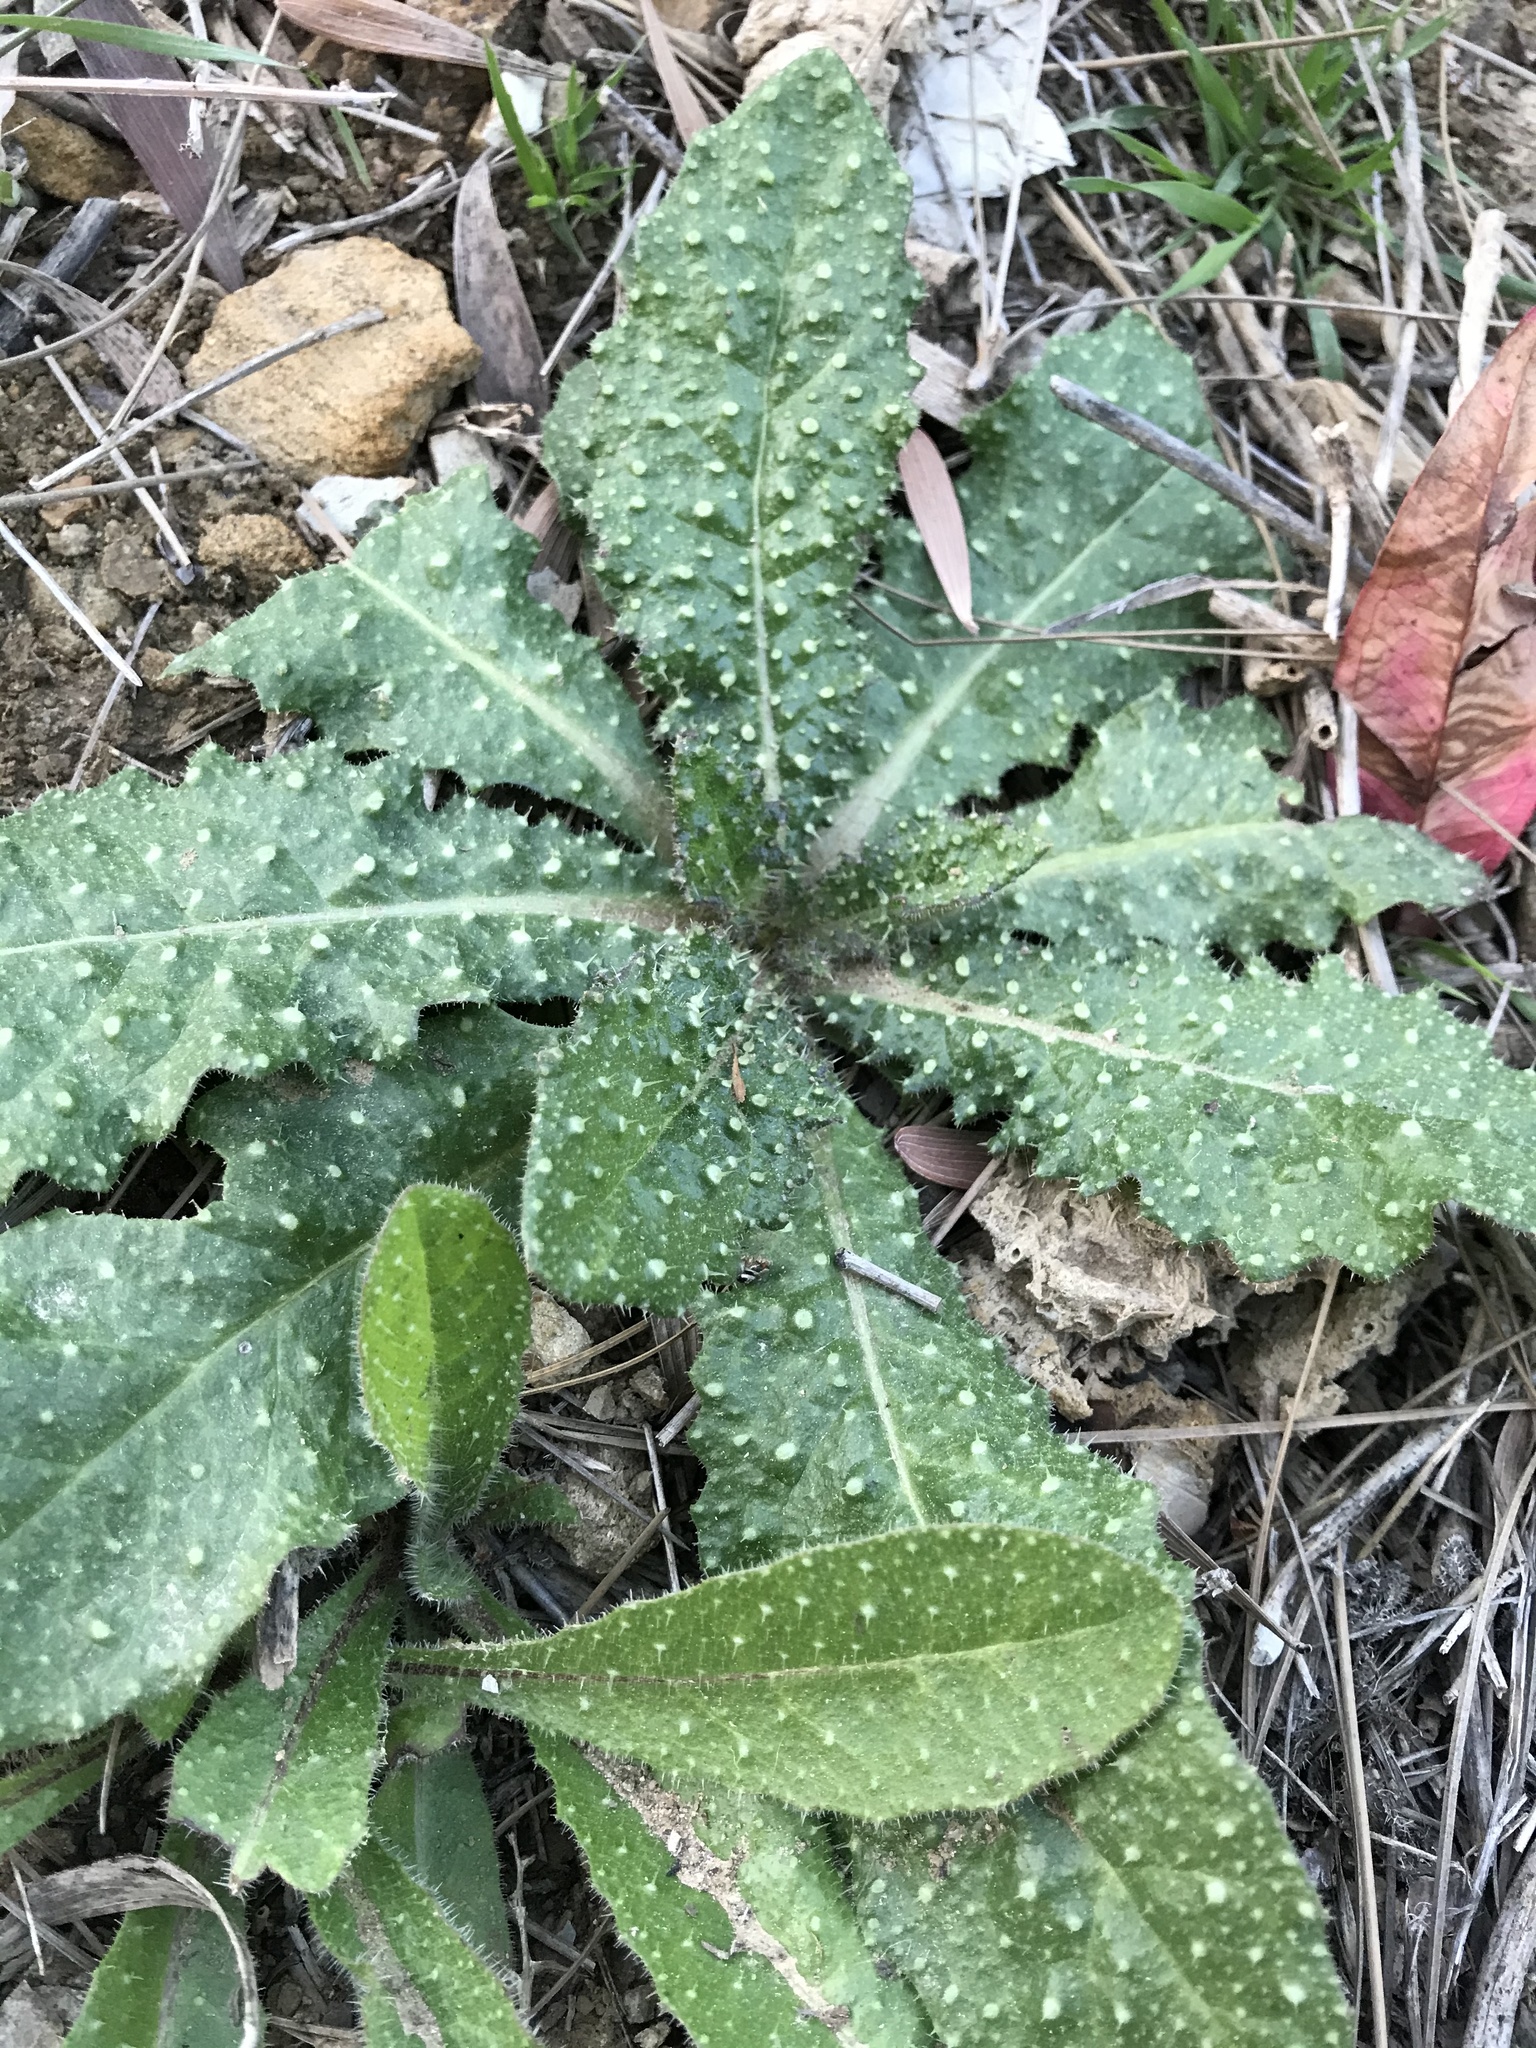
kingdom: Plantae
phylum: Tracheophyta
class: Magnoliopsida
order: Asterales
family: Asteraceae
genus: Helminthotheca
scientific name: Helminthotheca echioides
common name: Ox-tongue
